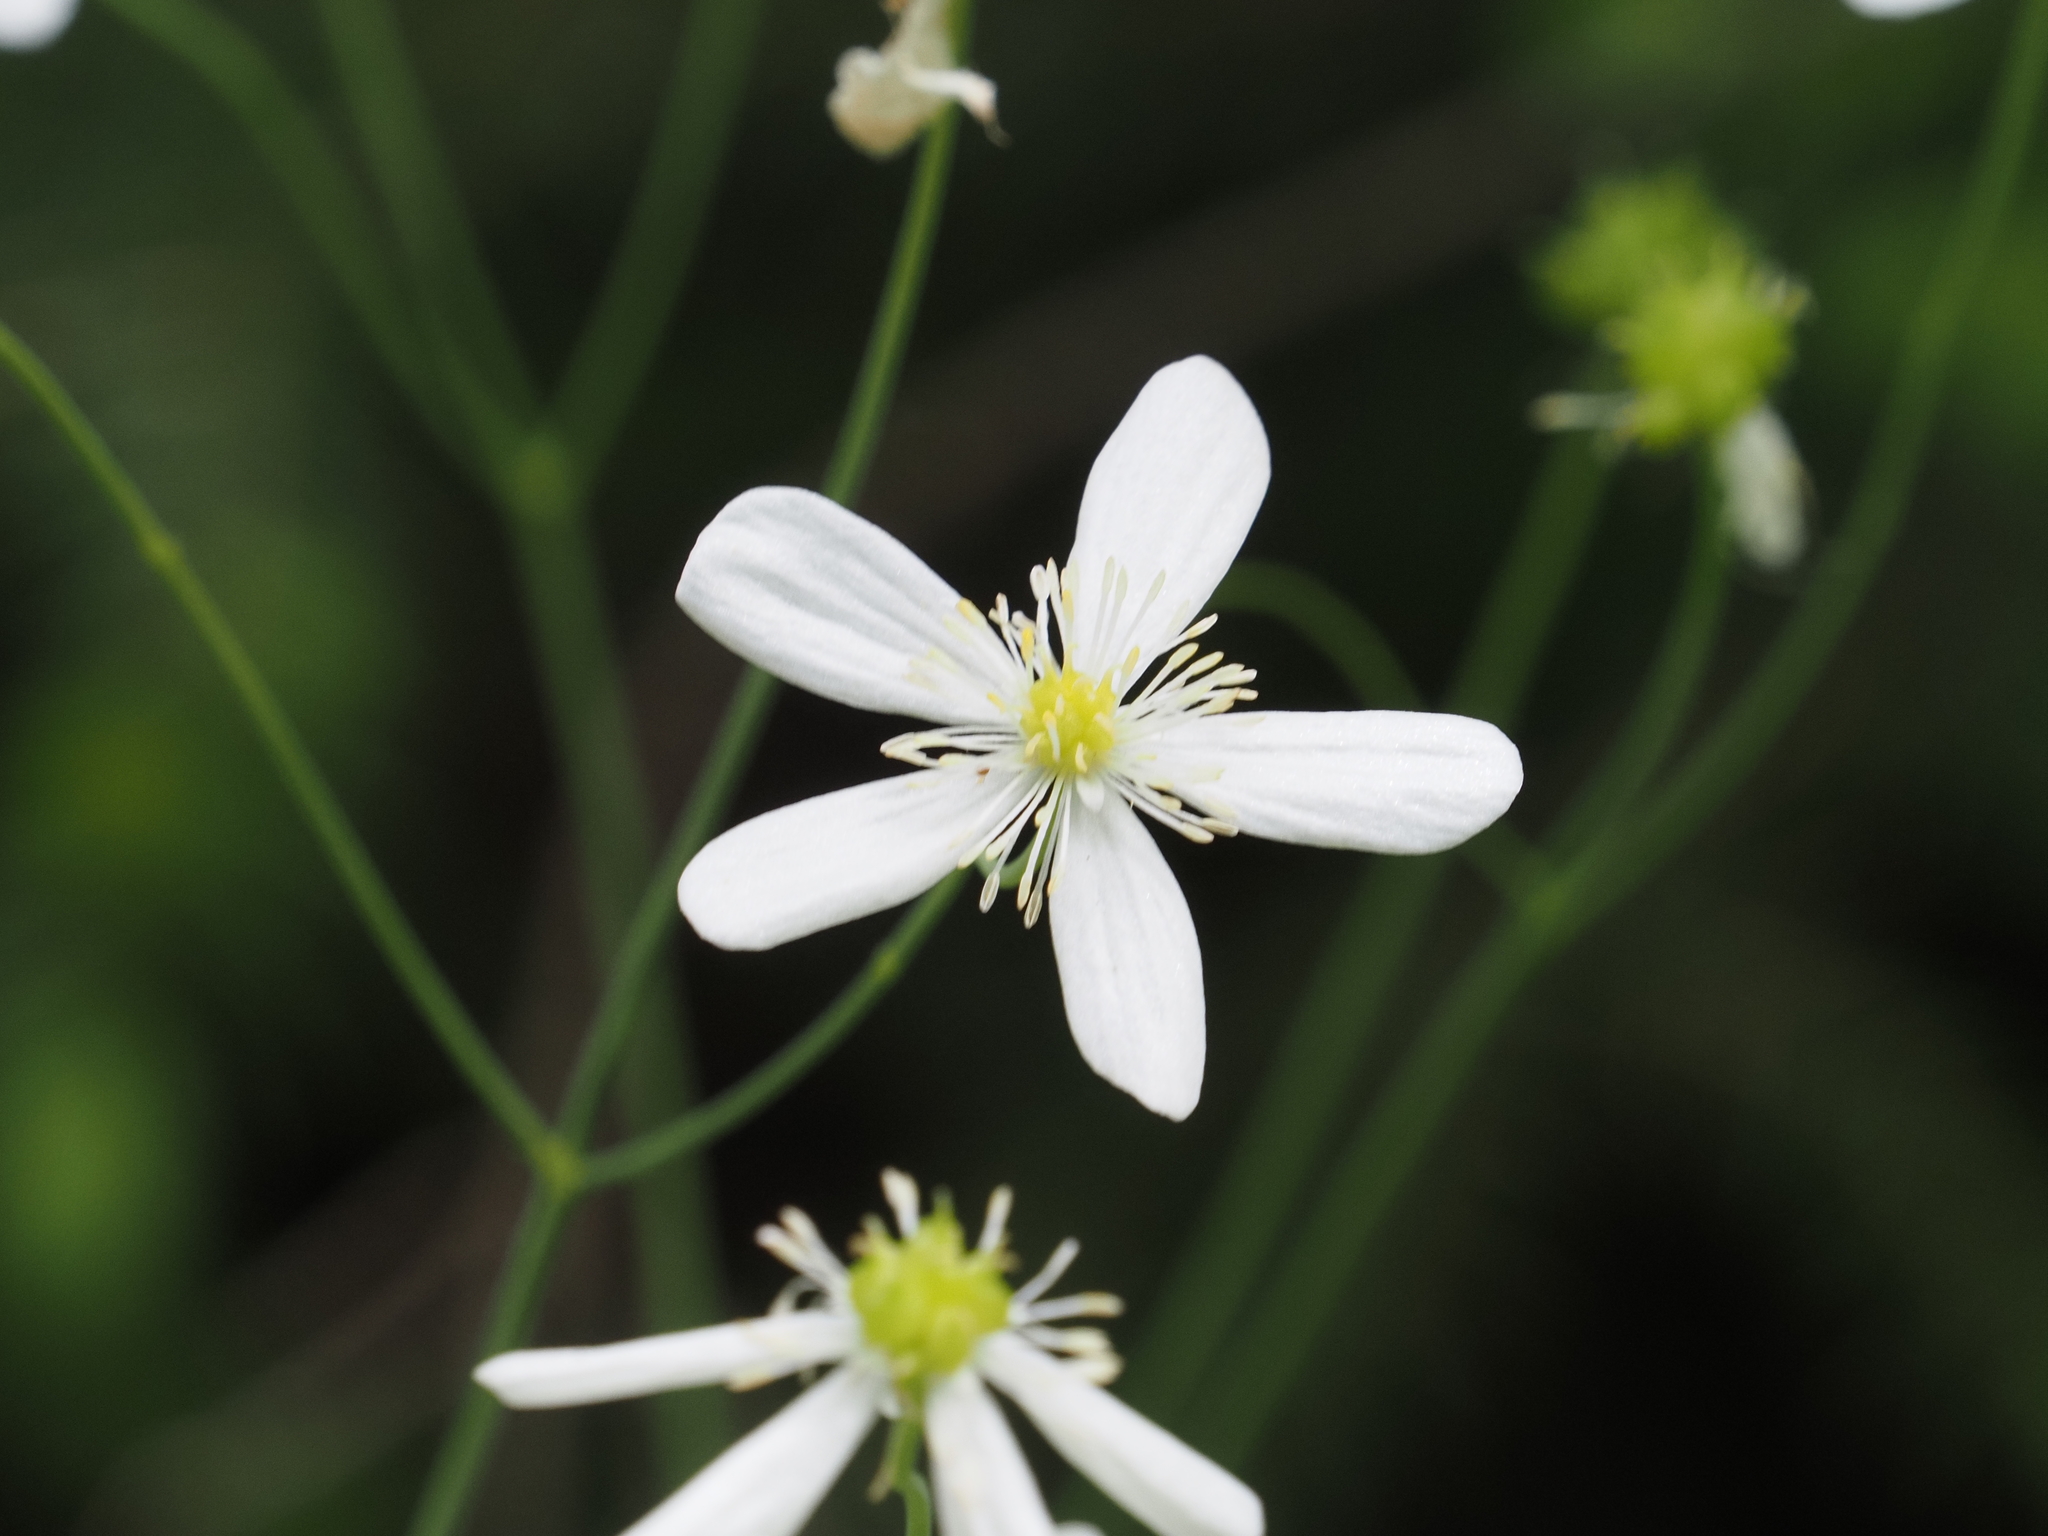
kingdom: Plantae
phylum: Tracheophyta
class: Magnoliopsida
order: Ranunculales
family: Ranunculaceae
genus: Ranunculus
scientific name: Ranunculus platanifolius
